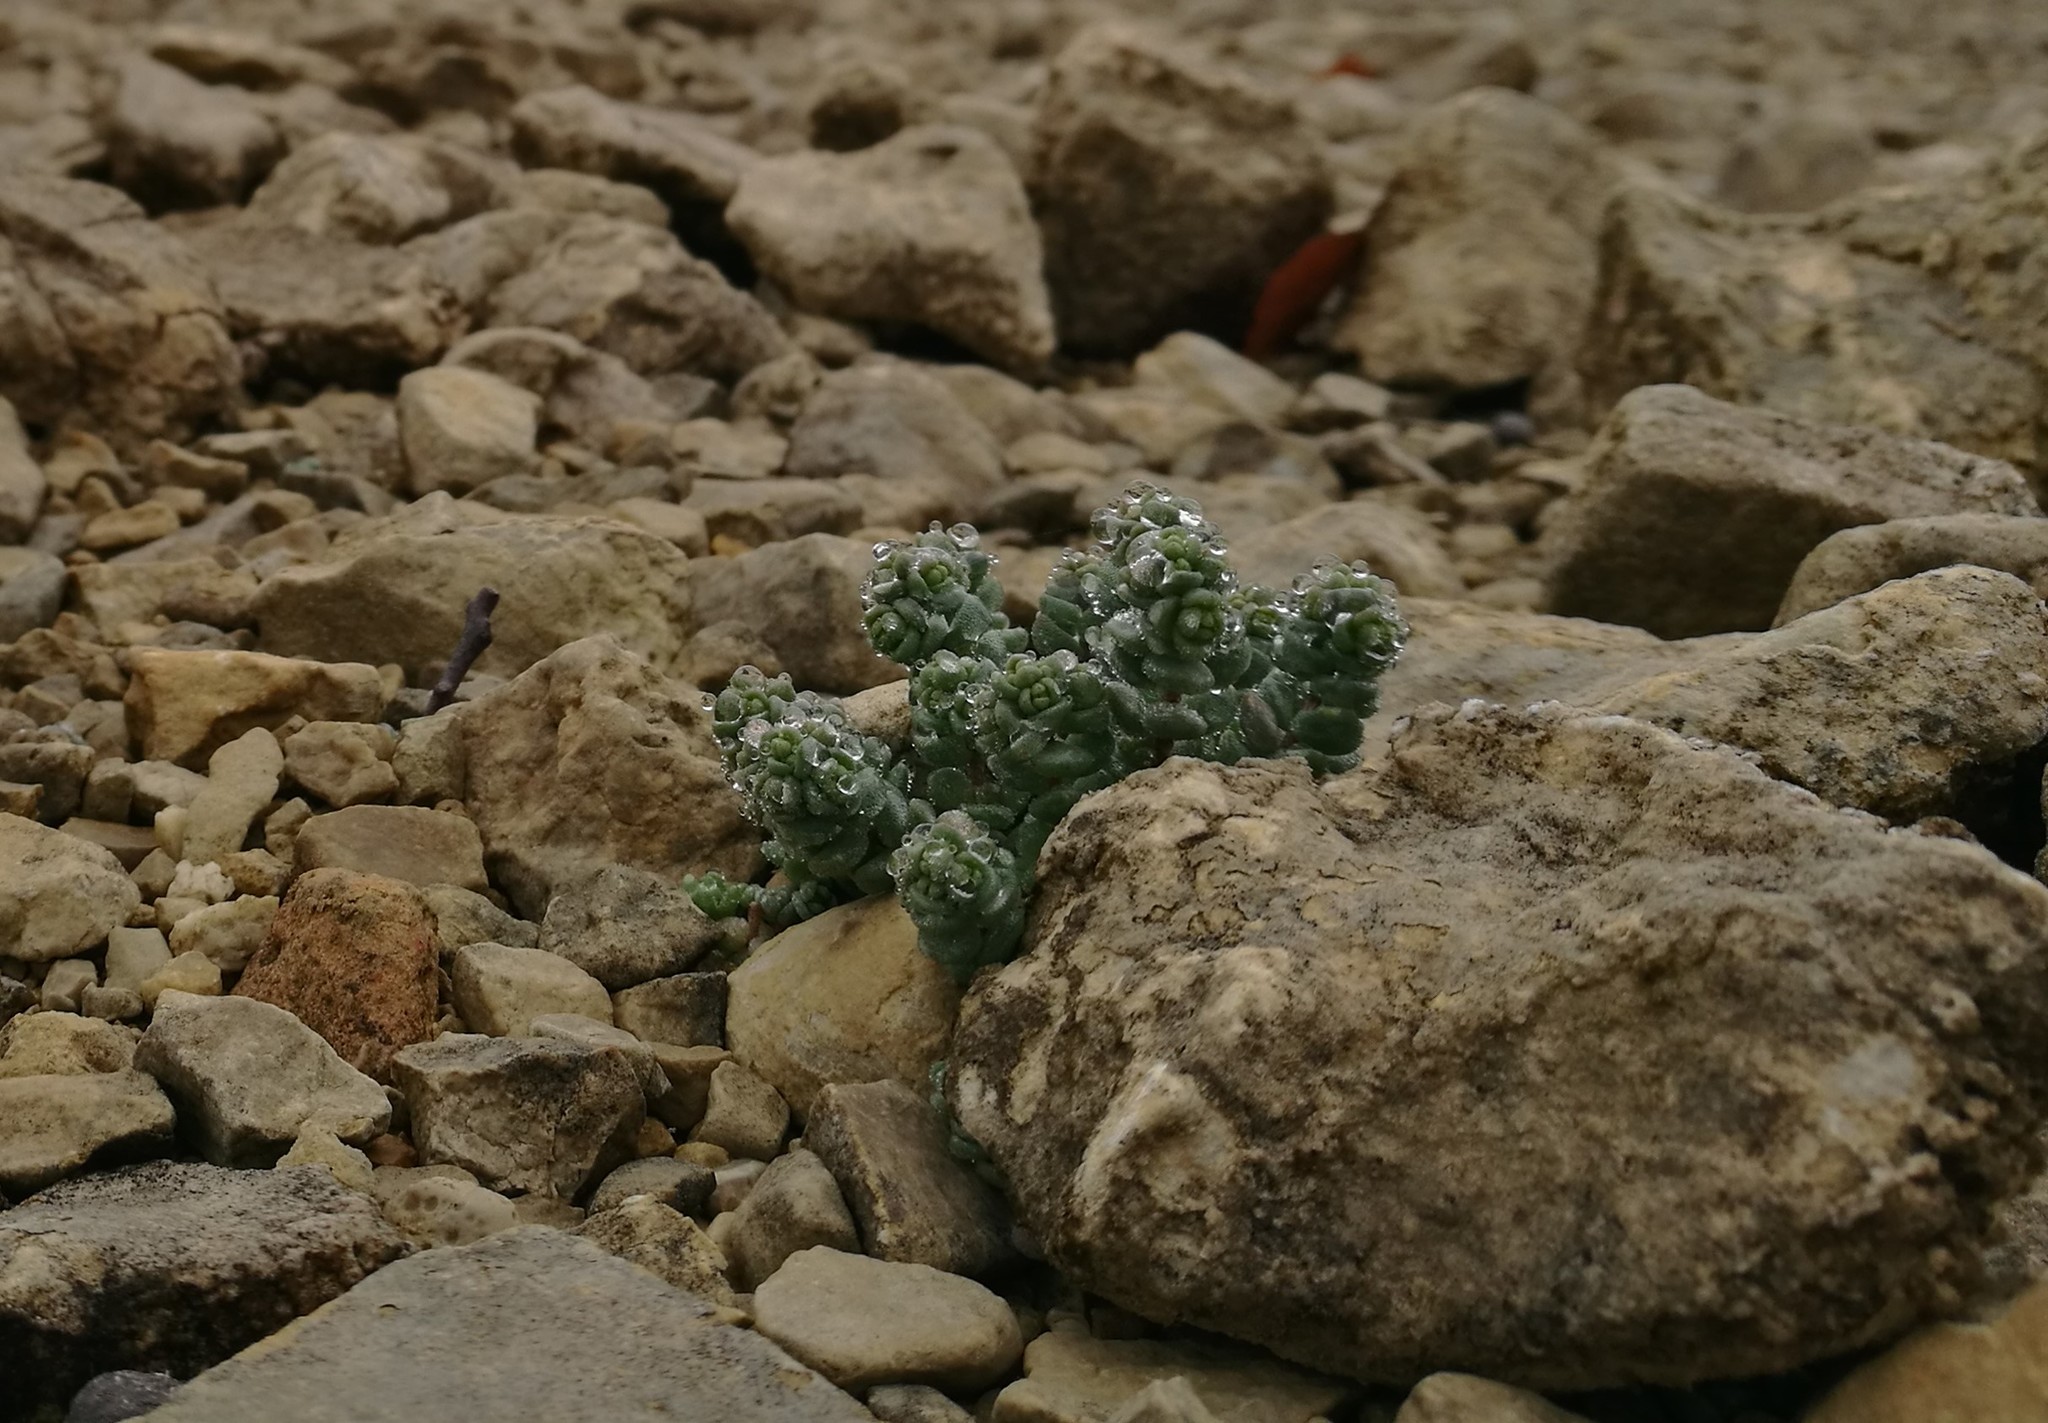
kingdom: Plantae
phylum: Tracheophyta
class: Magnoliopsida
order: Saxifragales
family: Crassulaceae
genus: Sedum
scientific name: Sedum dasyphyllum
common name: Thick-leaf stonecrop
